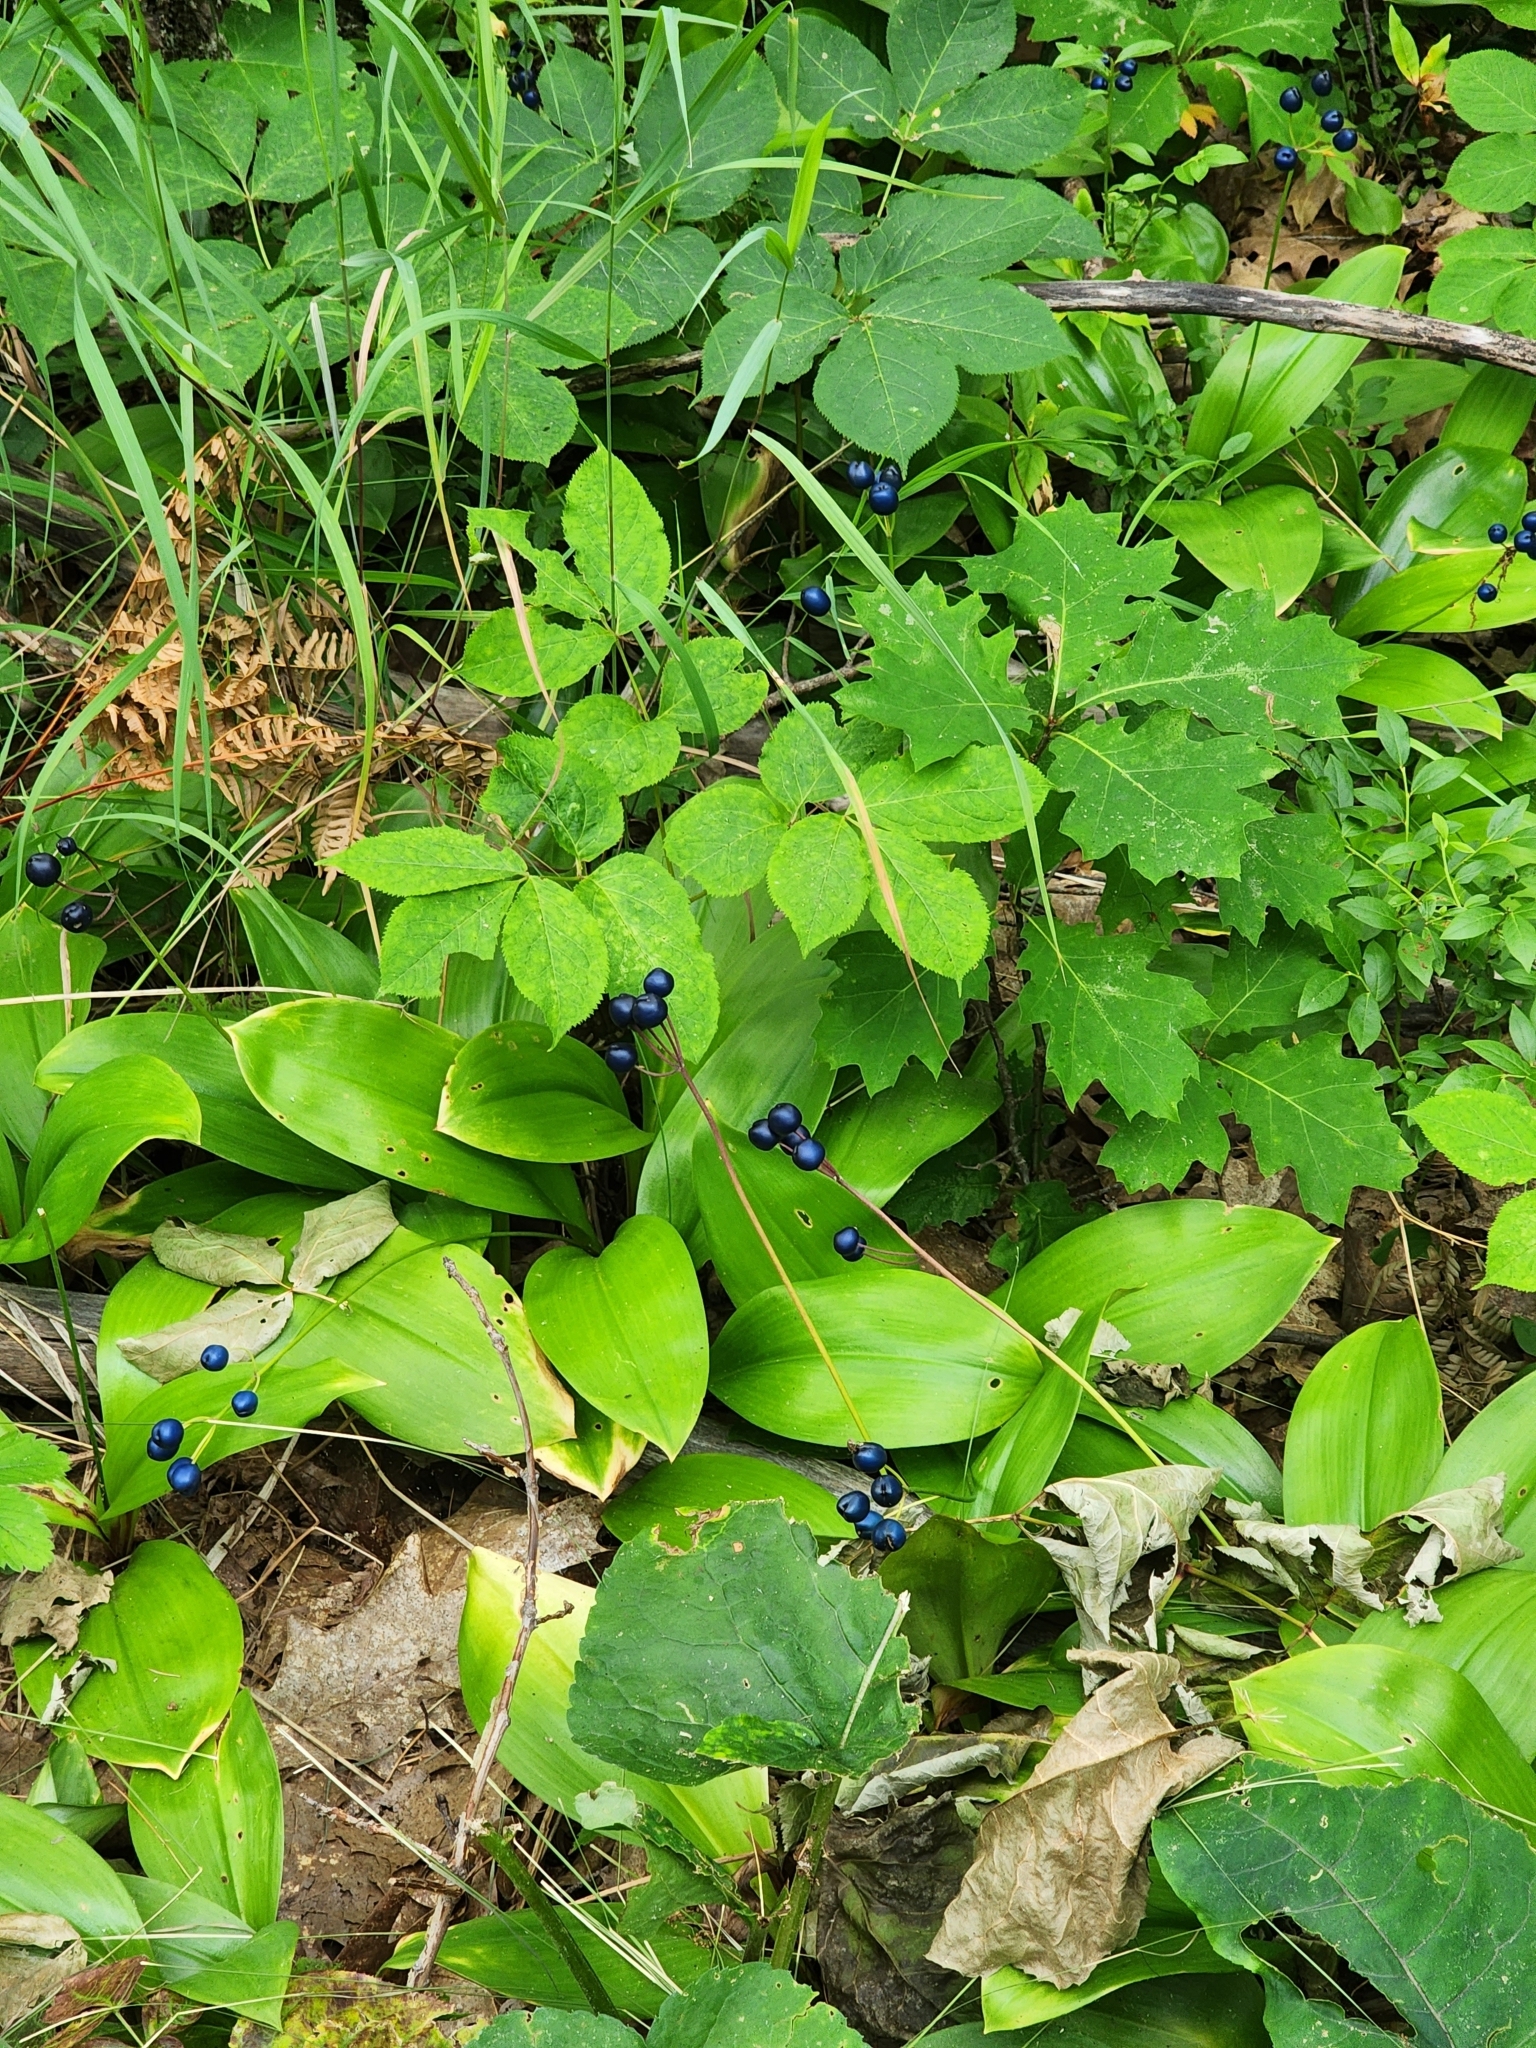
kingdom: Plantae
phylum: Tracheophyta
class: Liliopsida
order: Liliales
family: Liliaceae
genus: Clintonia
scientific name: Clintonia borealis
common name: Yellow clintonia
